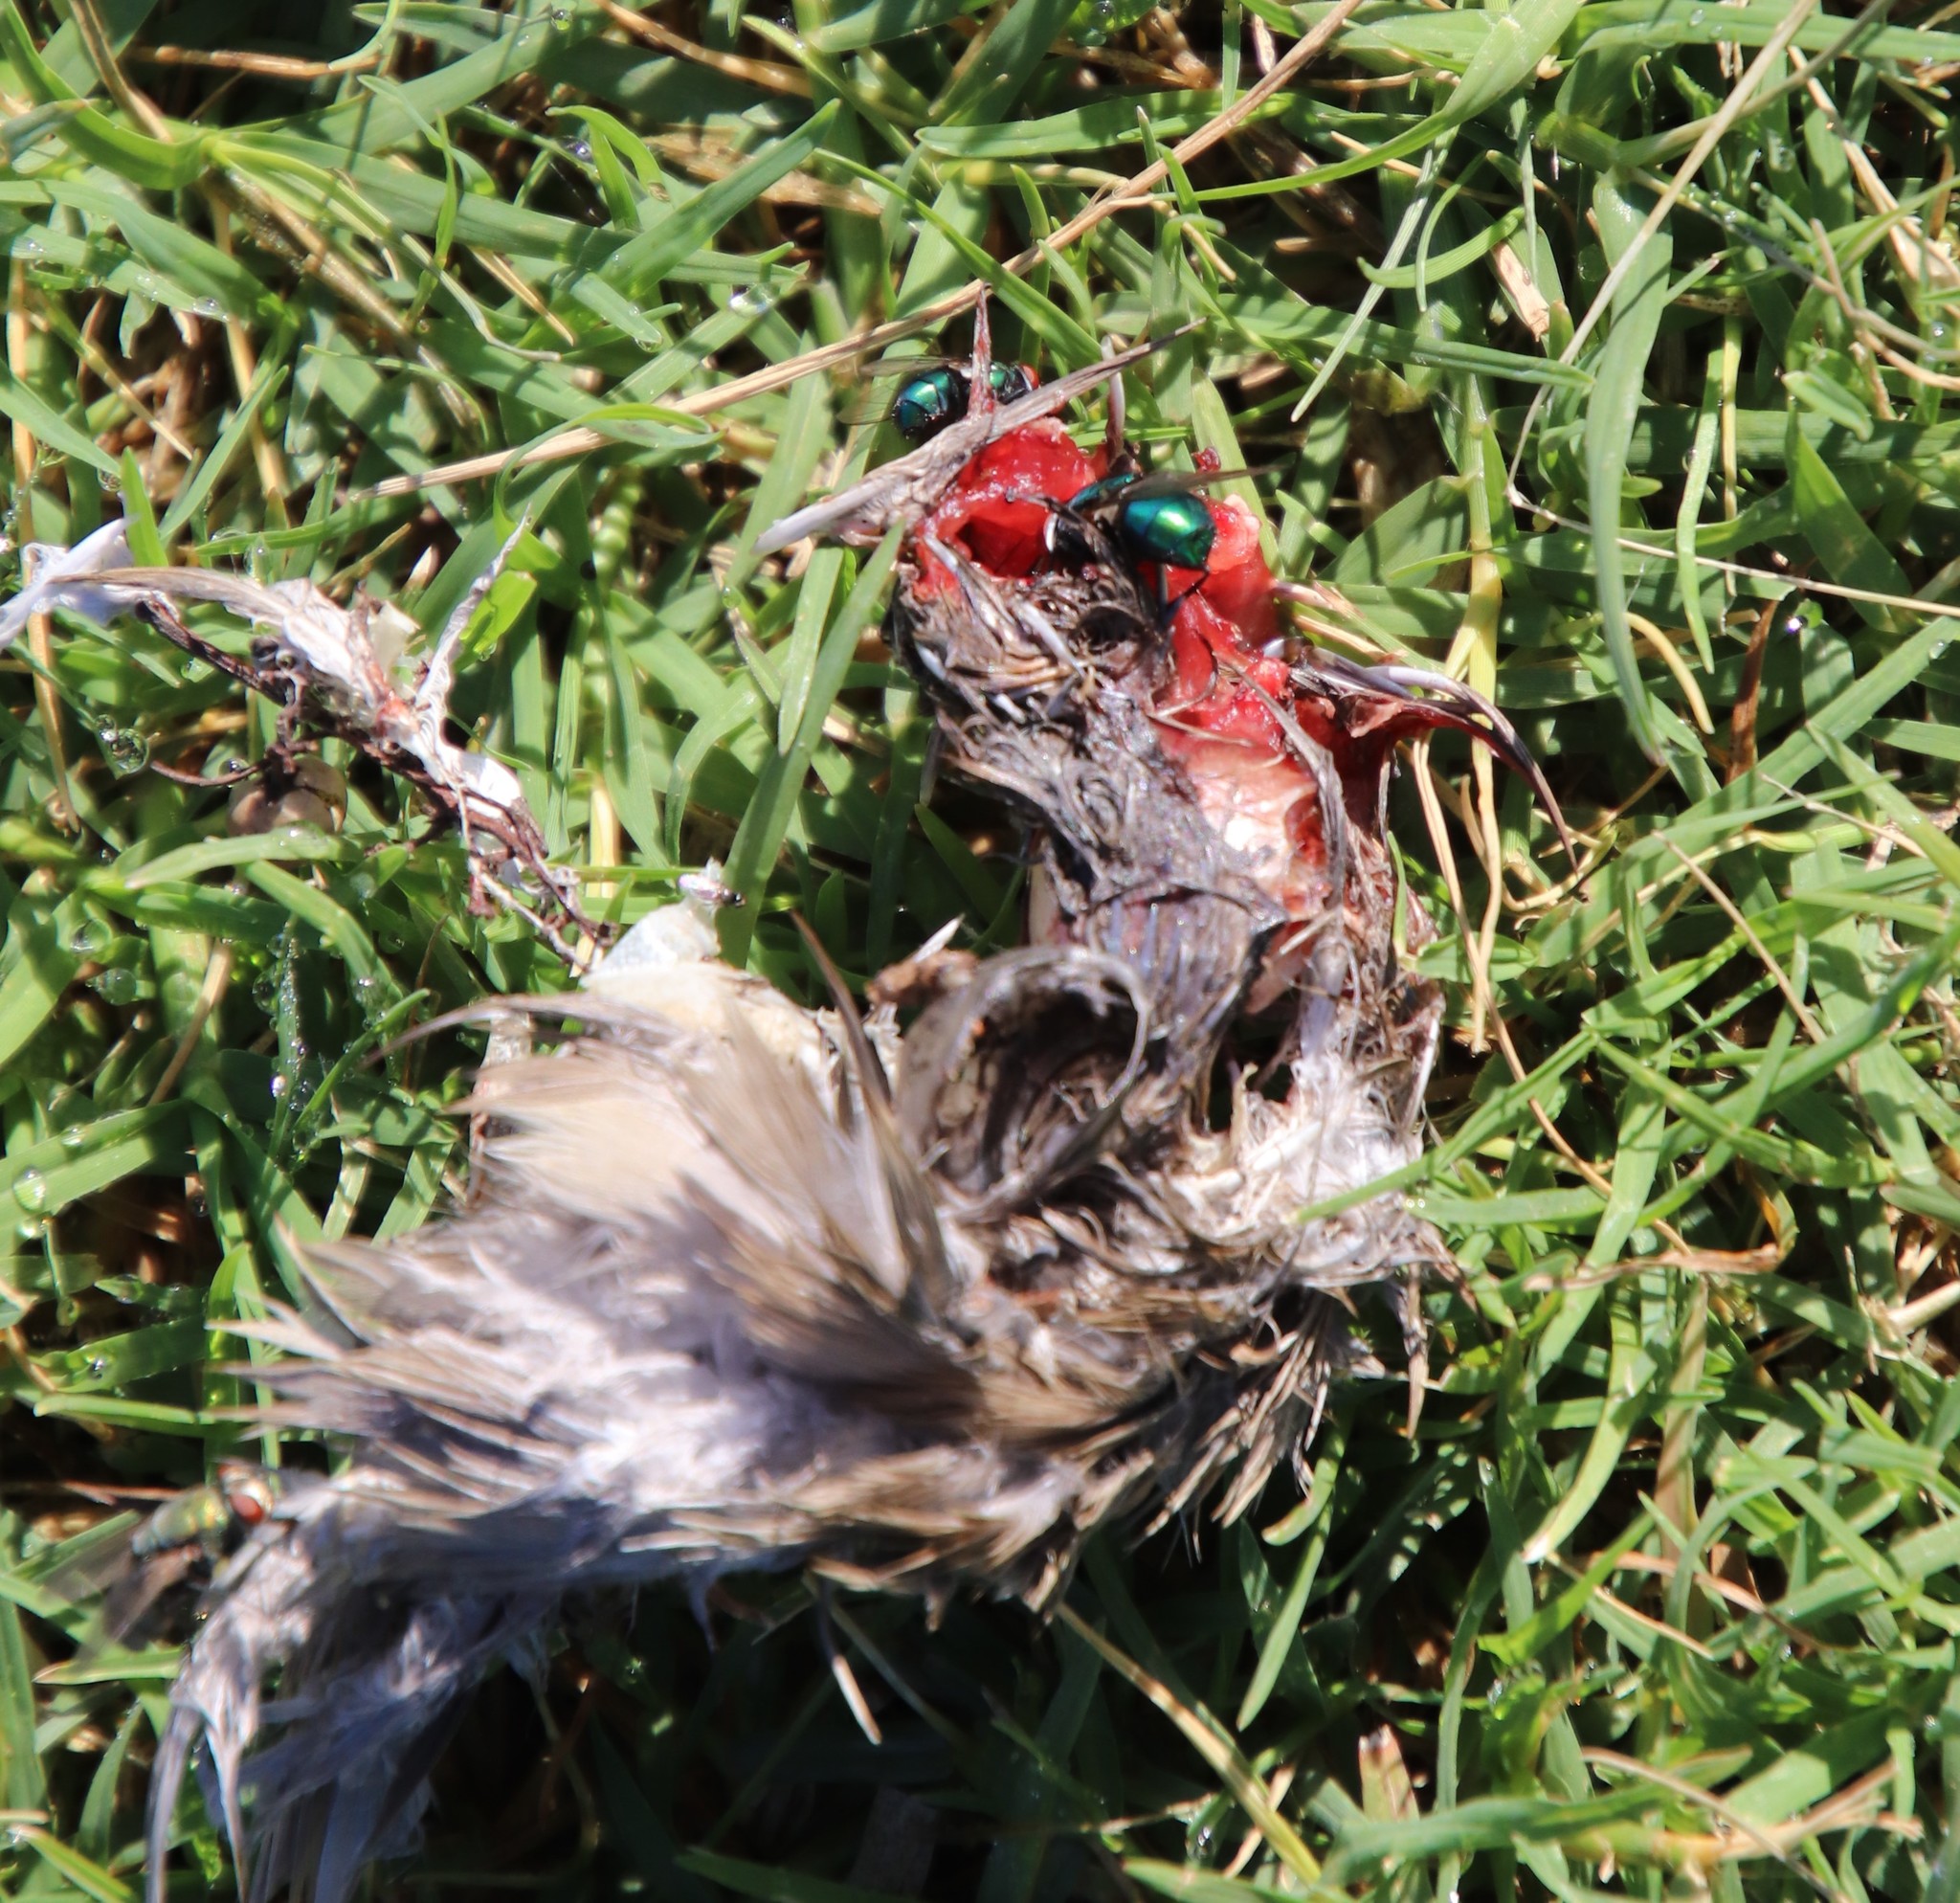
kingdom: Animalia
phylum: Chordata
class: Aves
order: Columbiformes
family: Columbidae
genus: Zenaida
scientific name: Zenaida macroura
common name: Mourning dove
